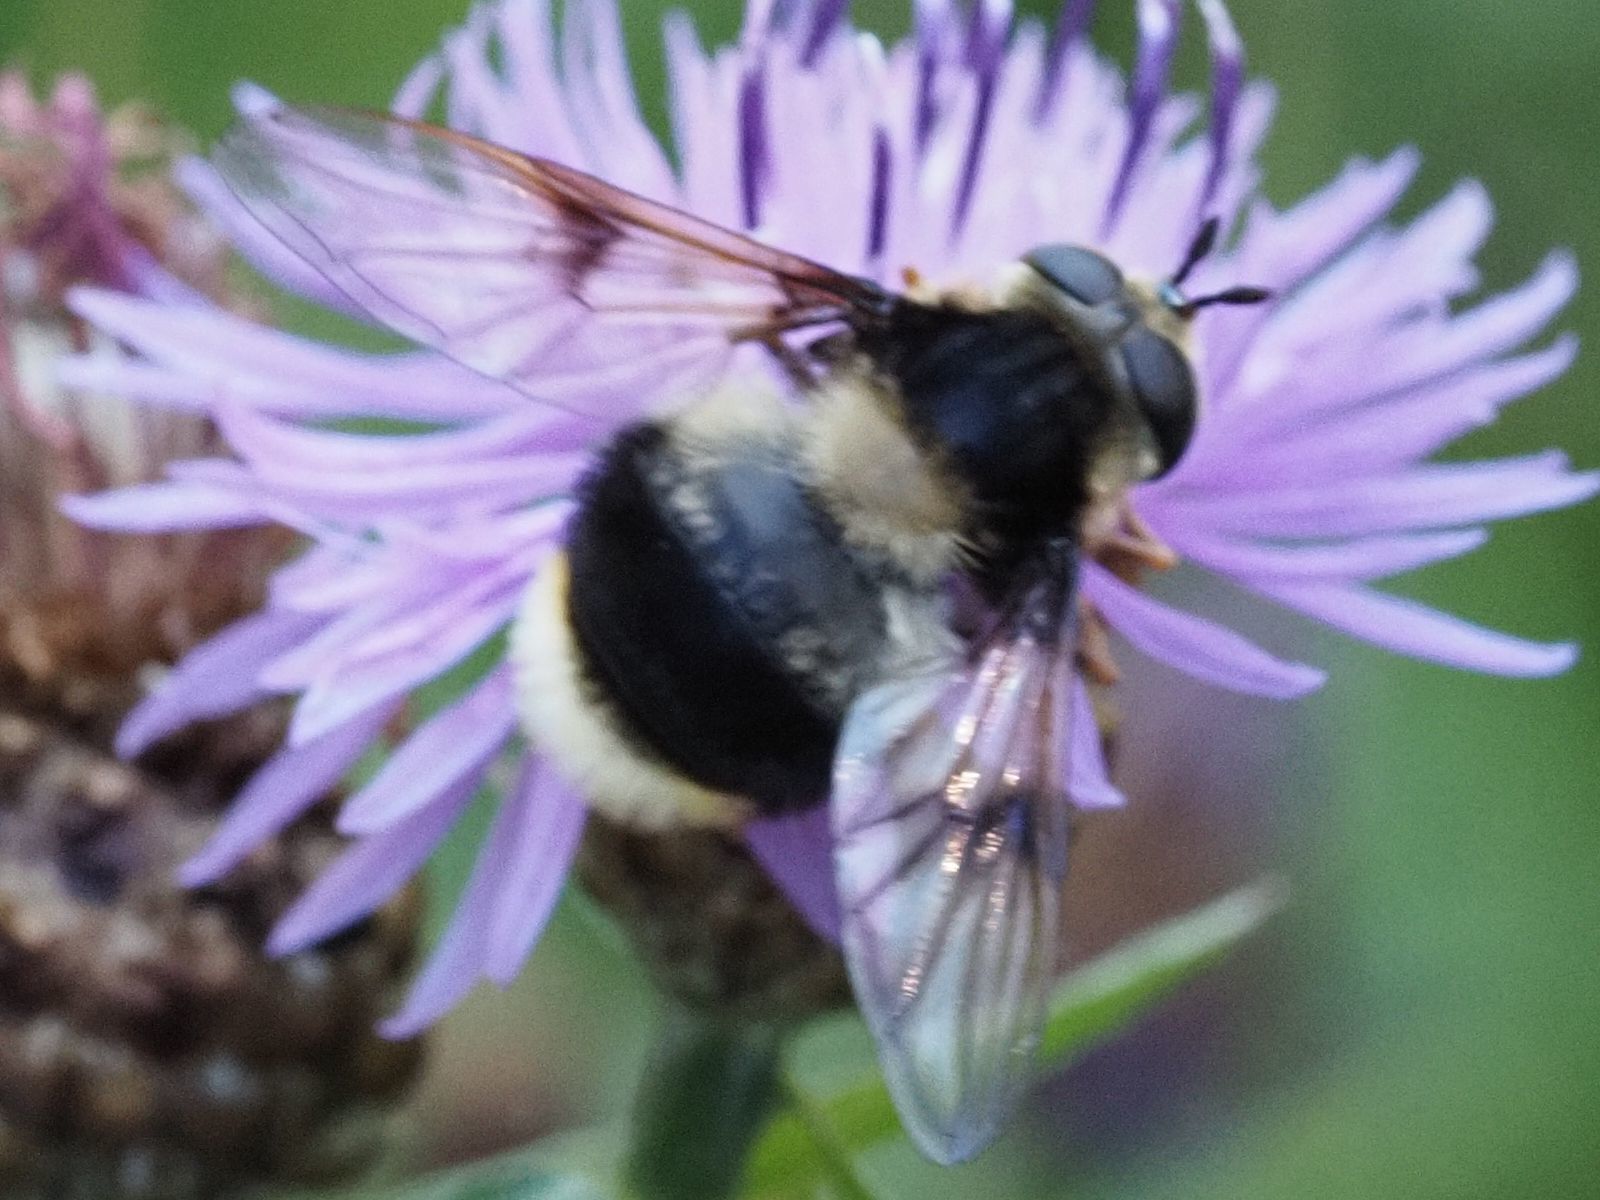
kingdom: Animalia
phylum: Arthropoda
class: Insecta
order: Diptera
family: Syrphidae
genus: Eriozona
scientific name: Eriozona syrphoides
